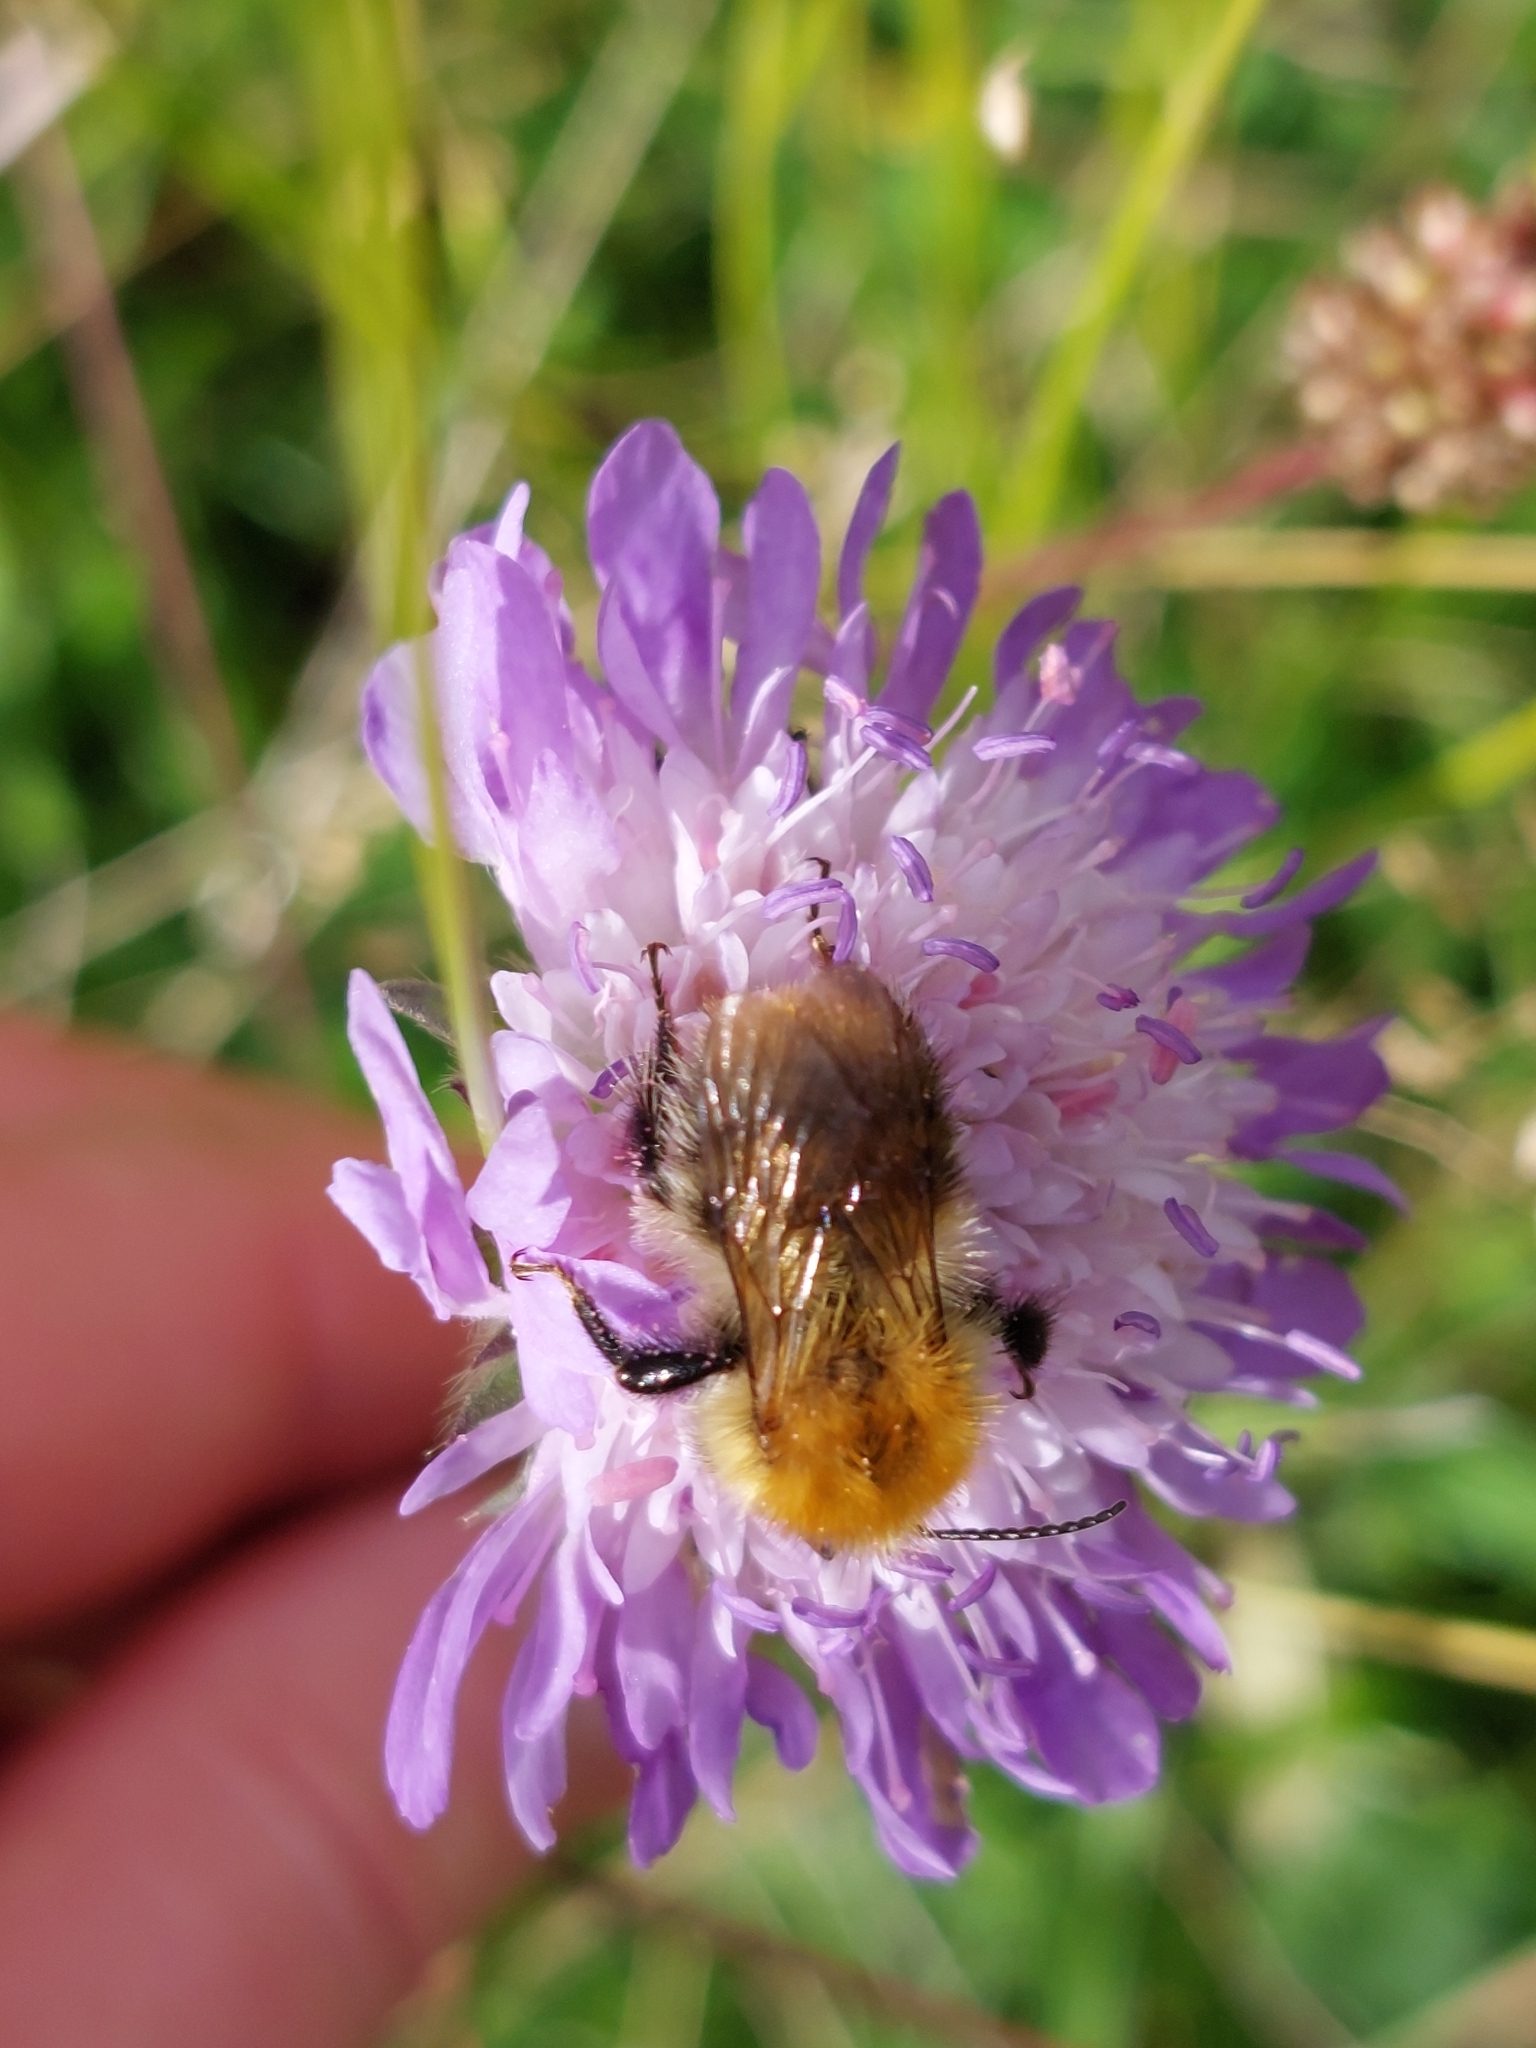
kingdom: Animalia
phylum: Arthropoda
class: Insecta
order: Hymenoptera
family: Apidae
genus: Bombus
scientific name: Bombus pascuorum
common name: Common carder bee
